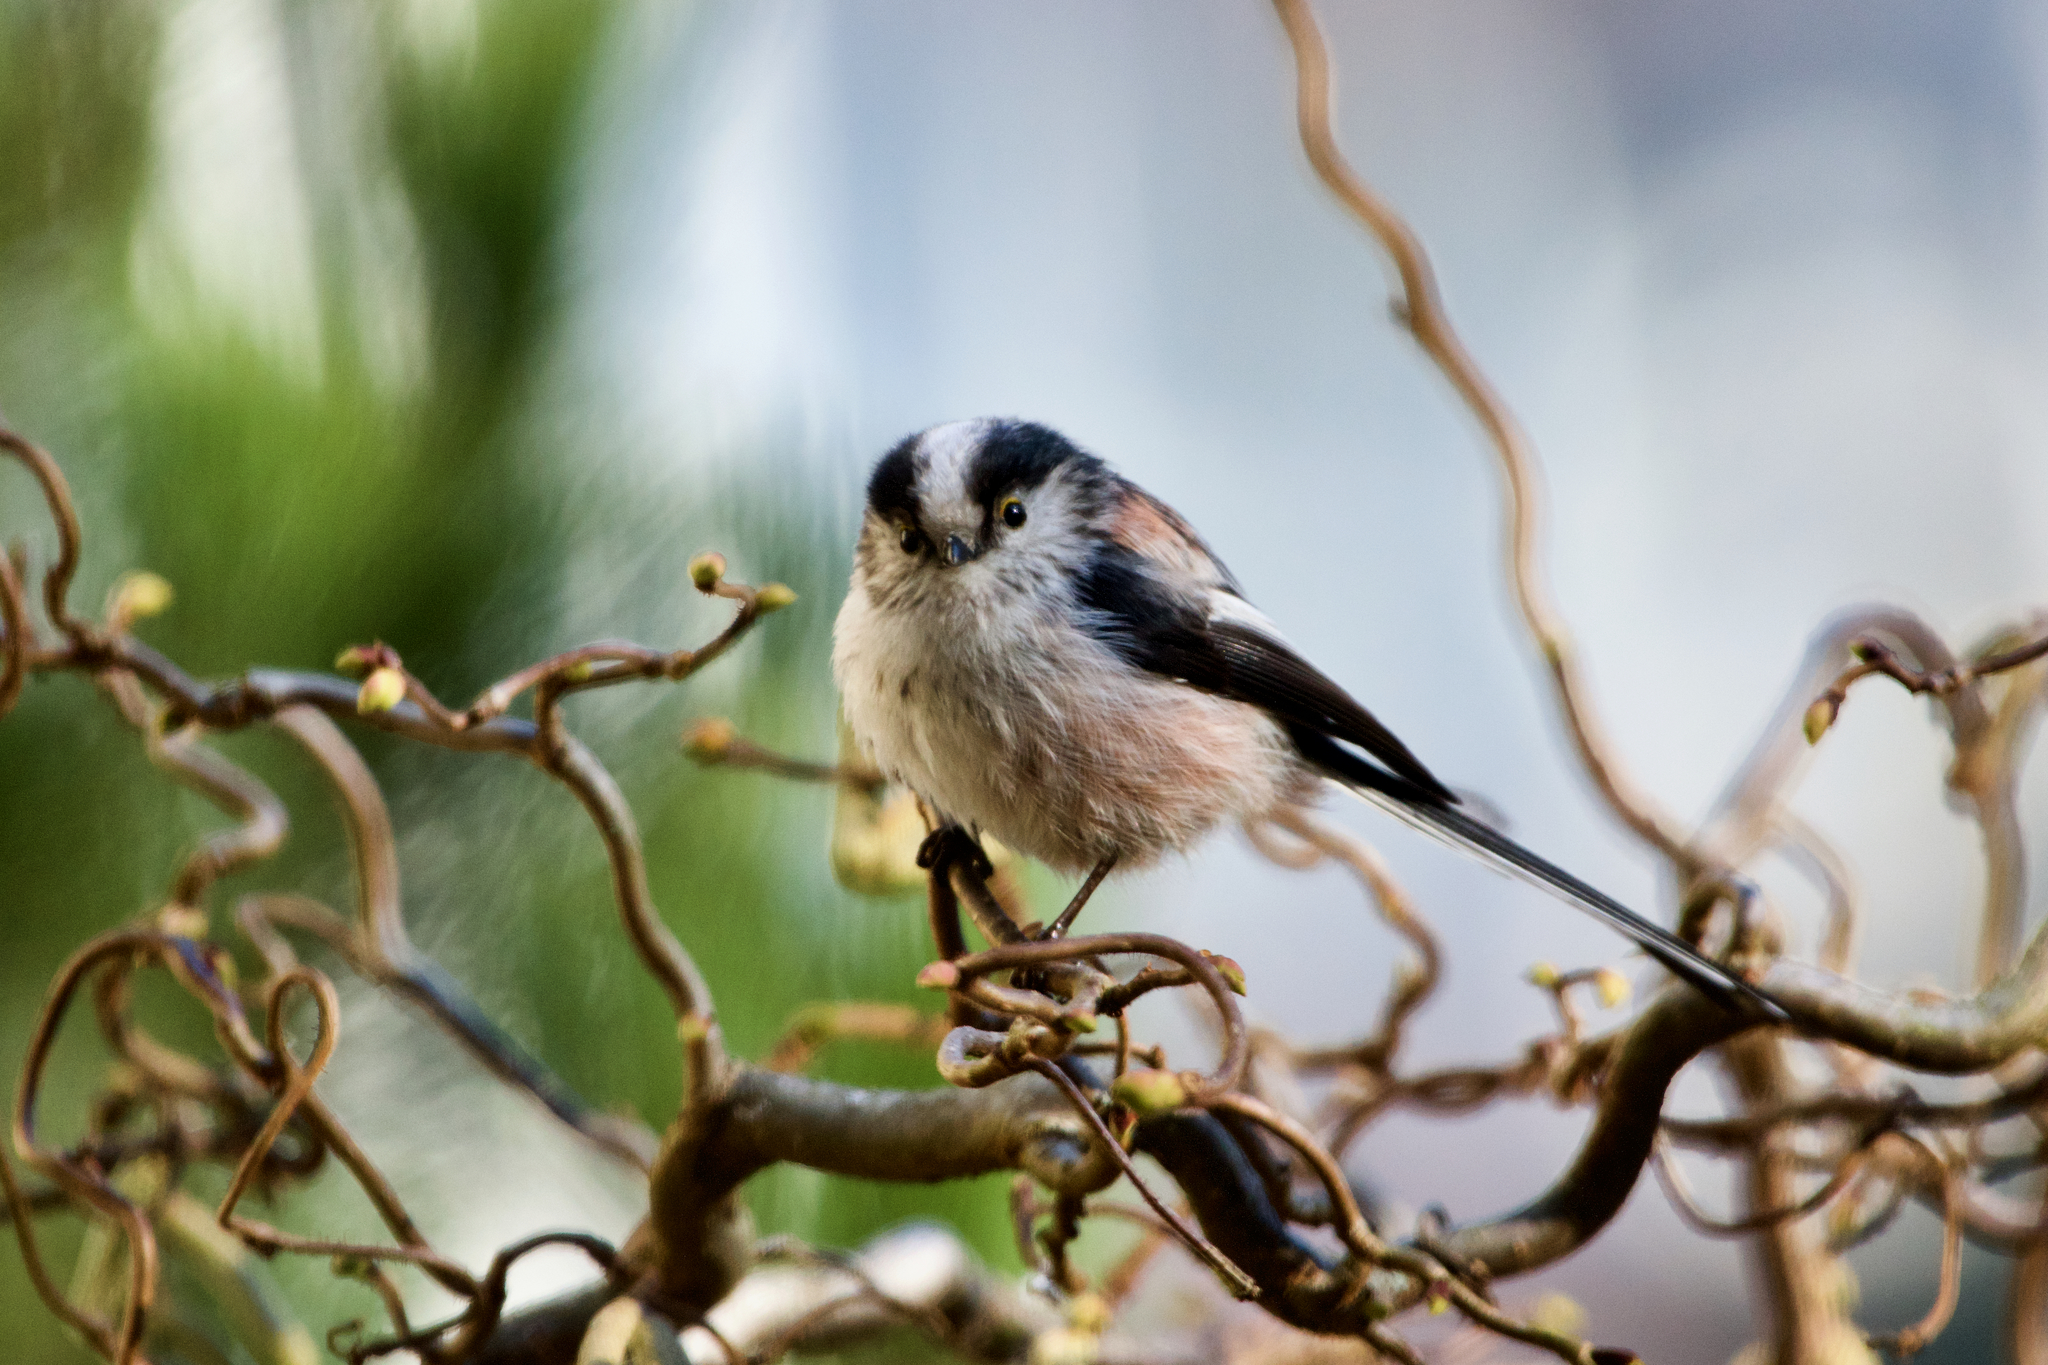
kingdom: Animalia
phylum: Chordata
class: Aves
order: Passeriformes
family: Aegithalidae
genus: Aegithalos
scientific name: Aegithalos caudatus
